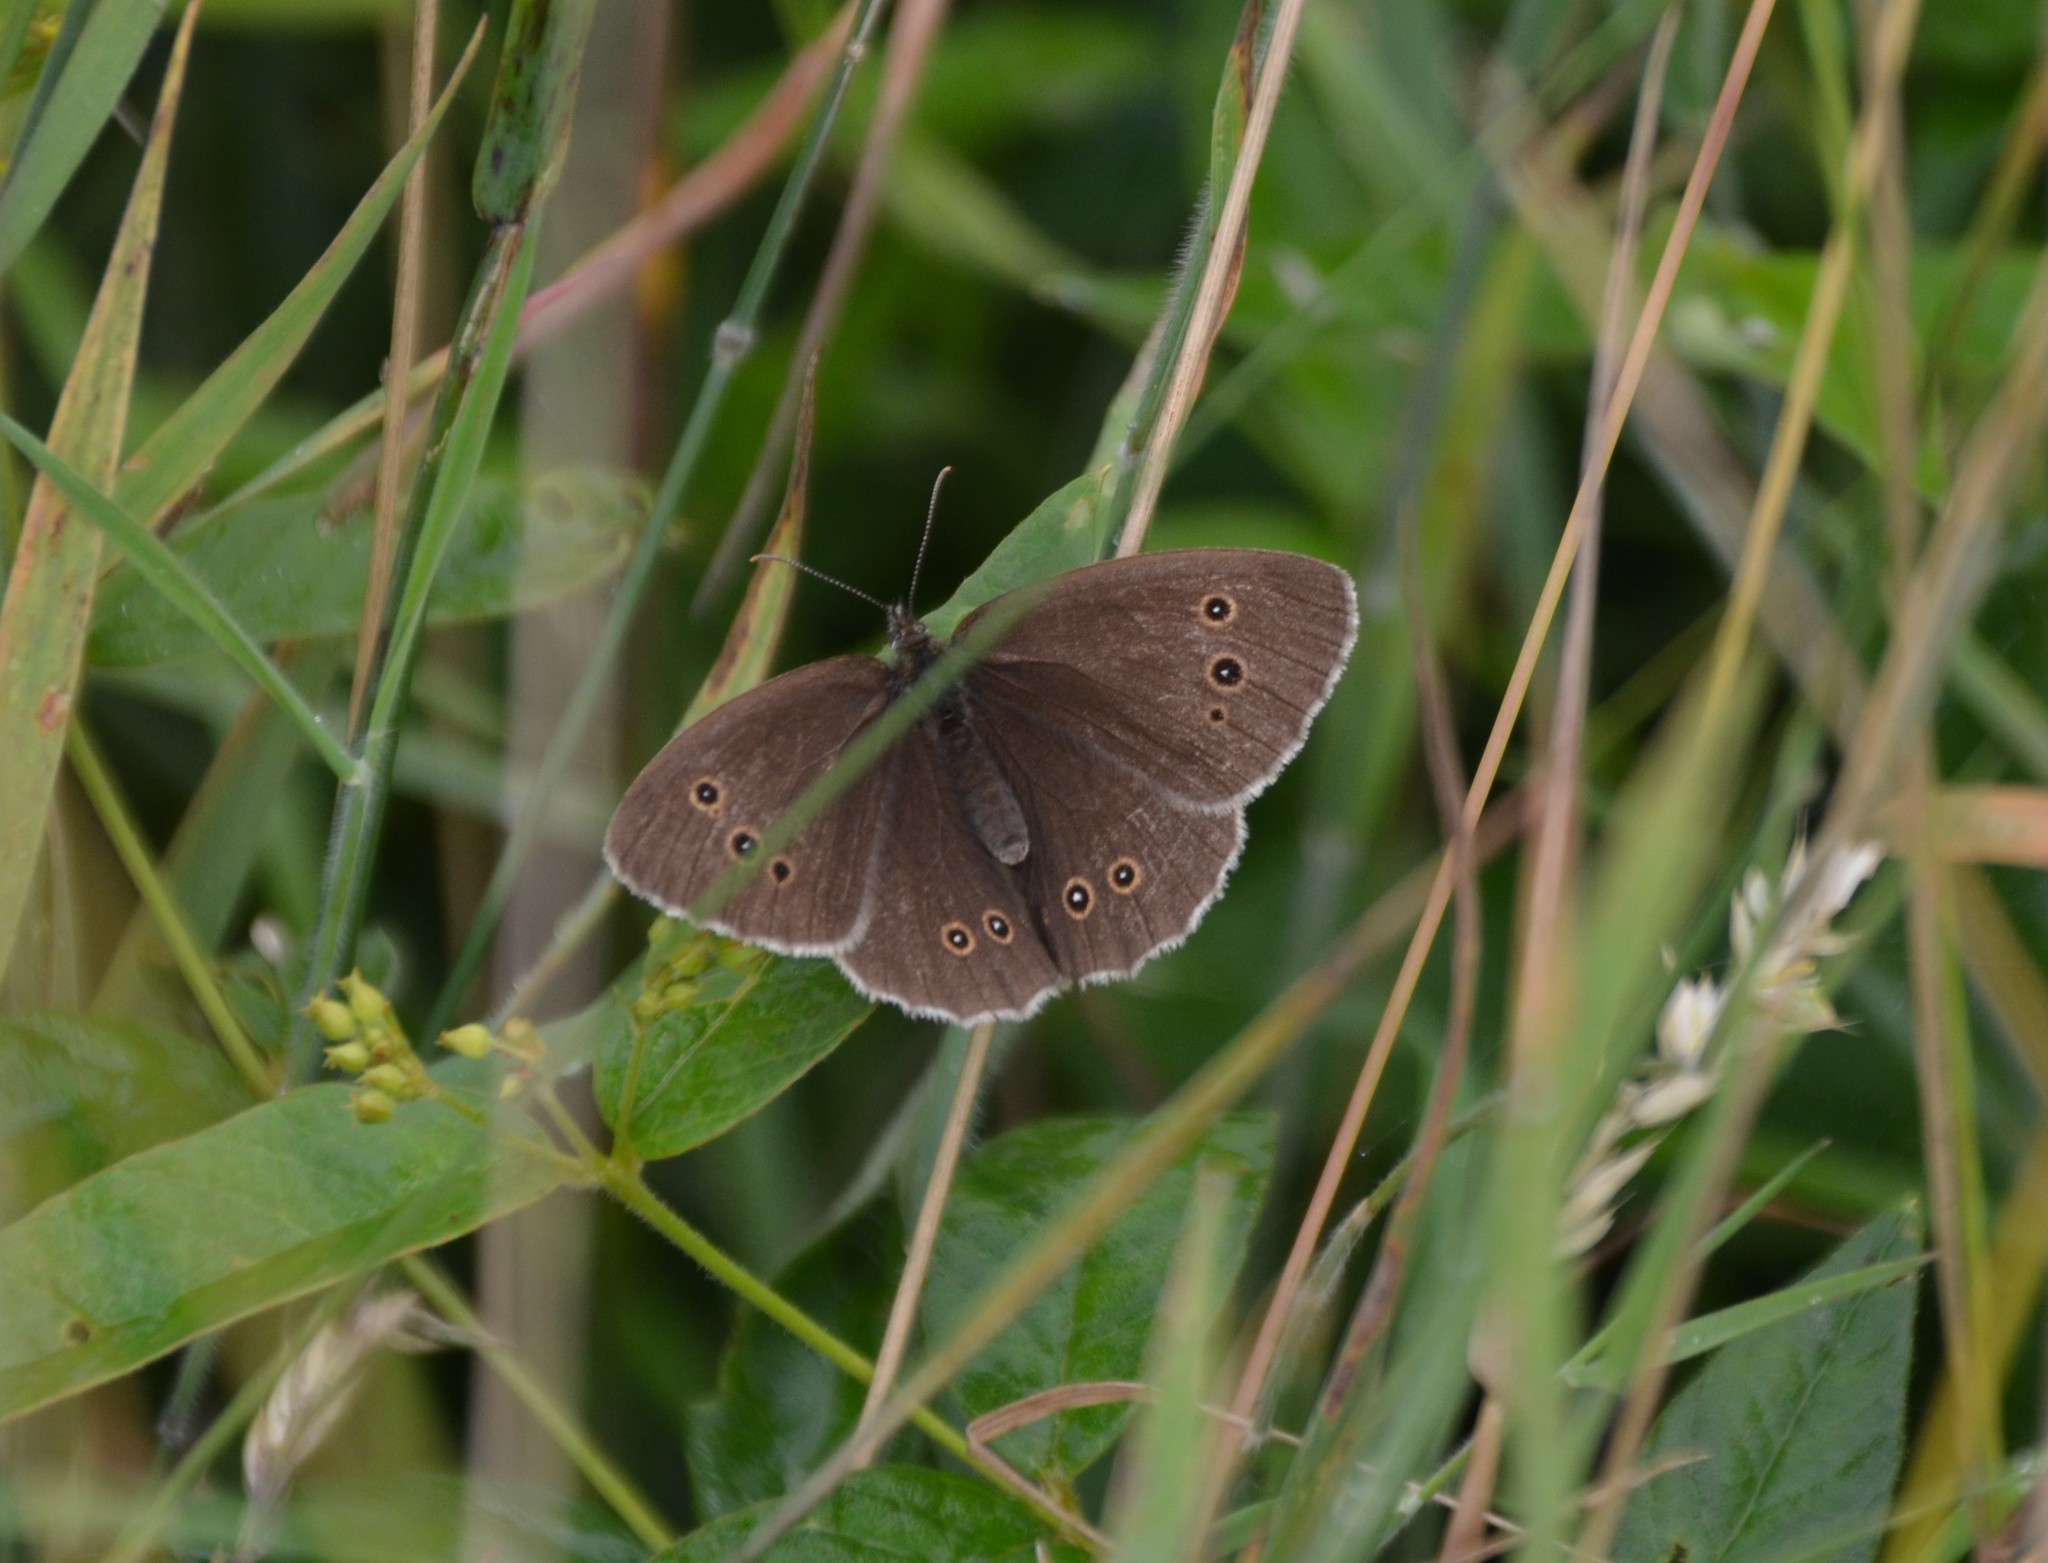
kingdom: Animalia
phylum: Arthropoda
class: Insecta
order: Lepidoptera
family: Nymphalidae
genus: Aphantopus
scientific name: Aphantopus hyperantus
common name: Ringlet
